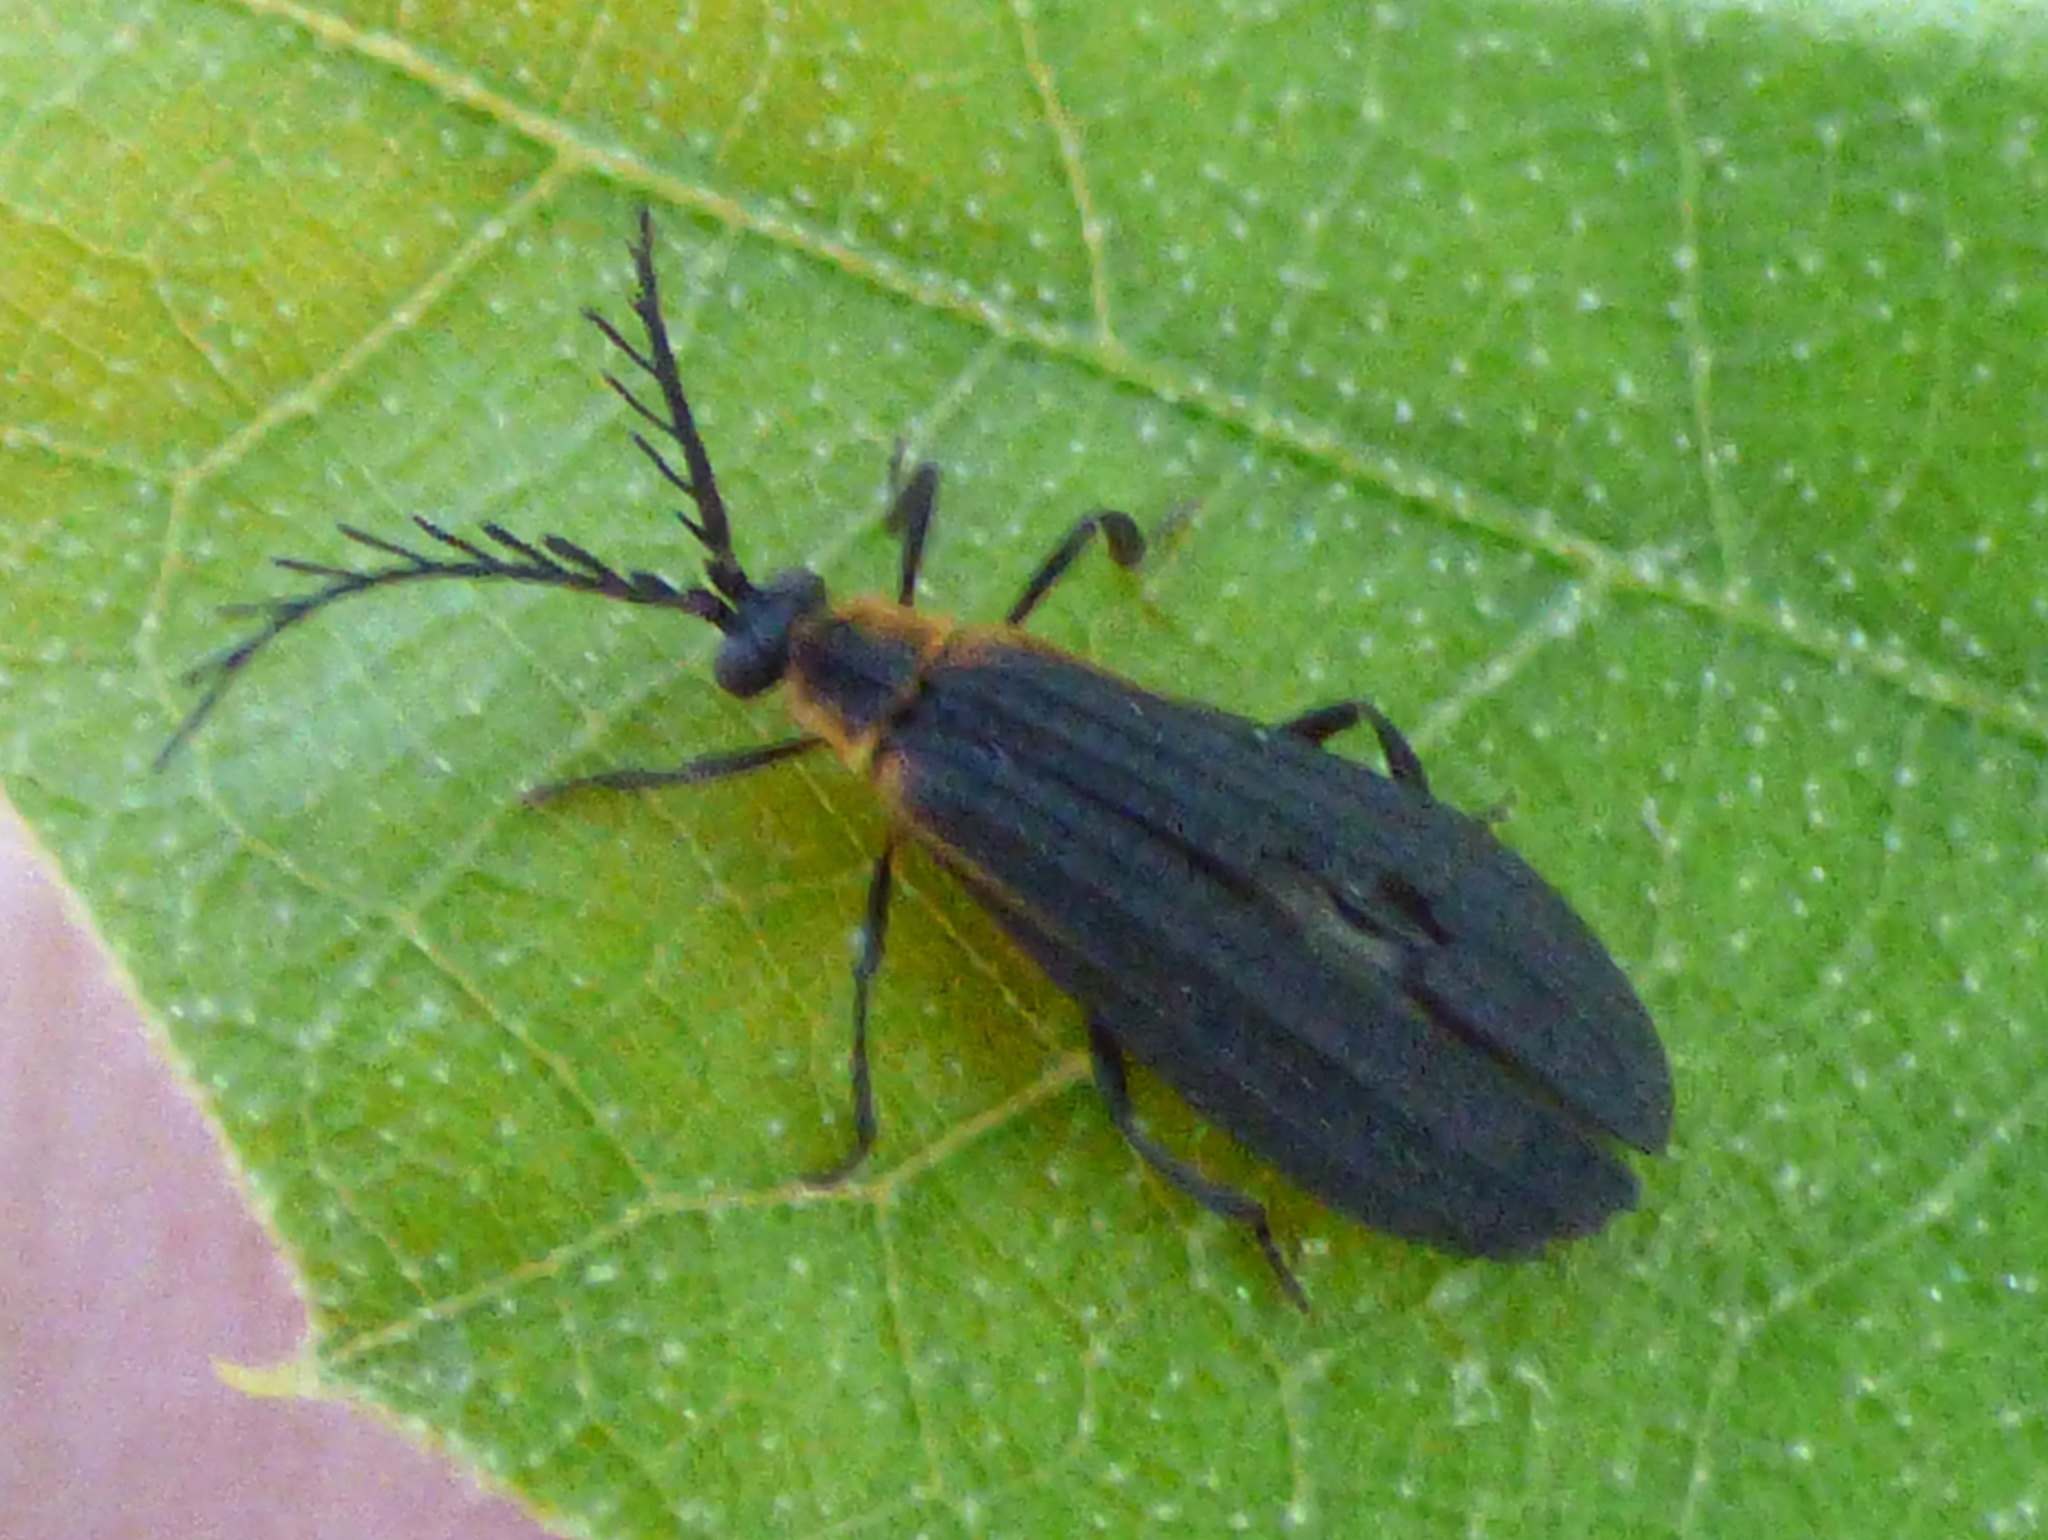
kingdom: Animalia
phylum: Arthropoda
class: Insecta
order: Coleoptera
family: Lycidae
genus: Leptoceletes
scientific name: Leptoceletes basalis
